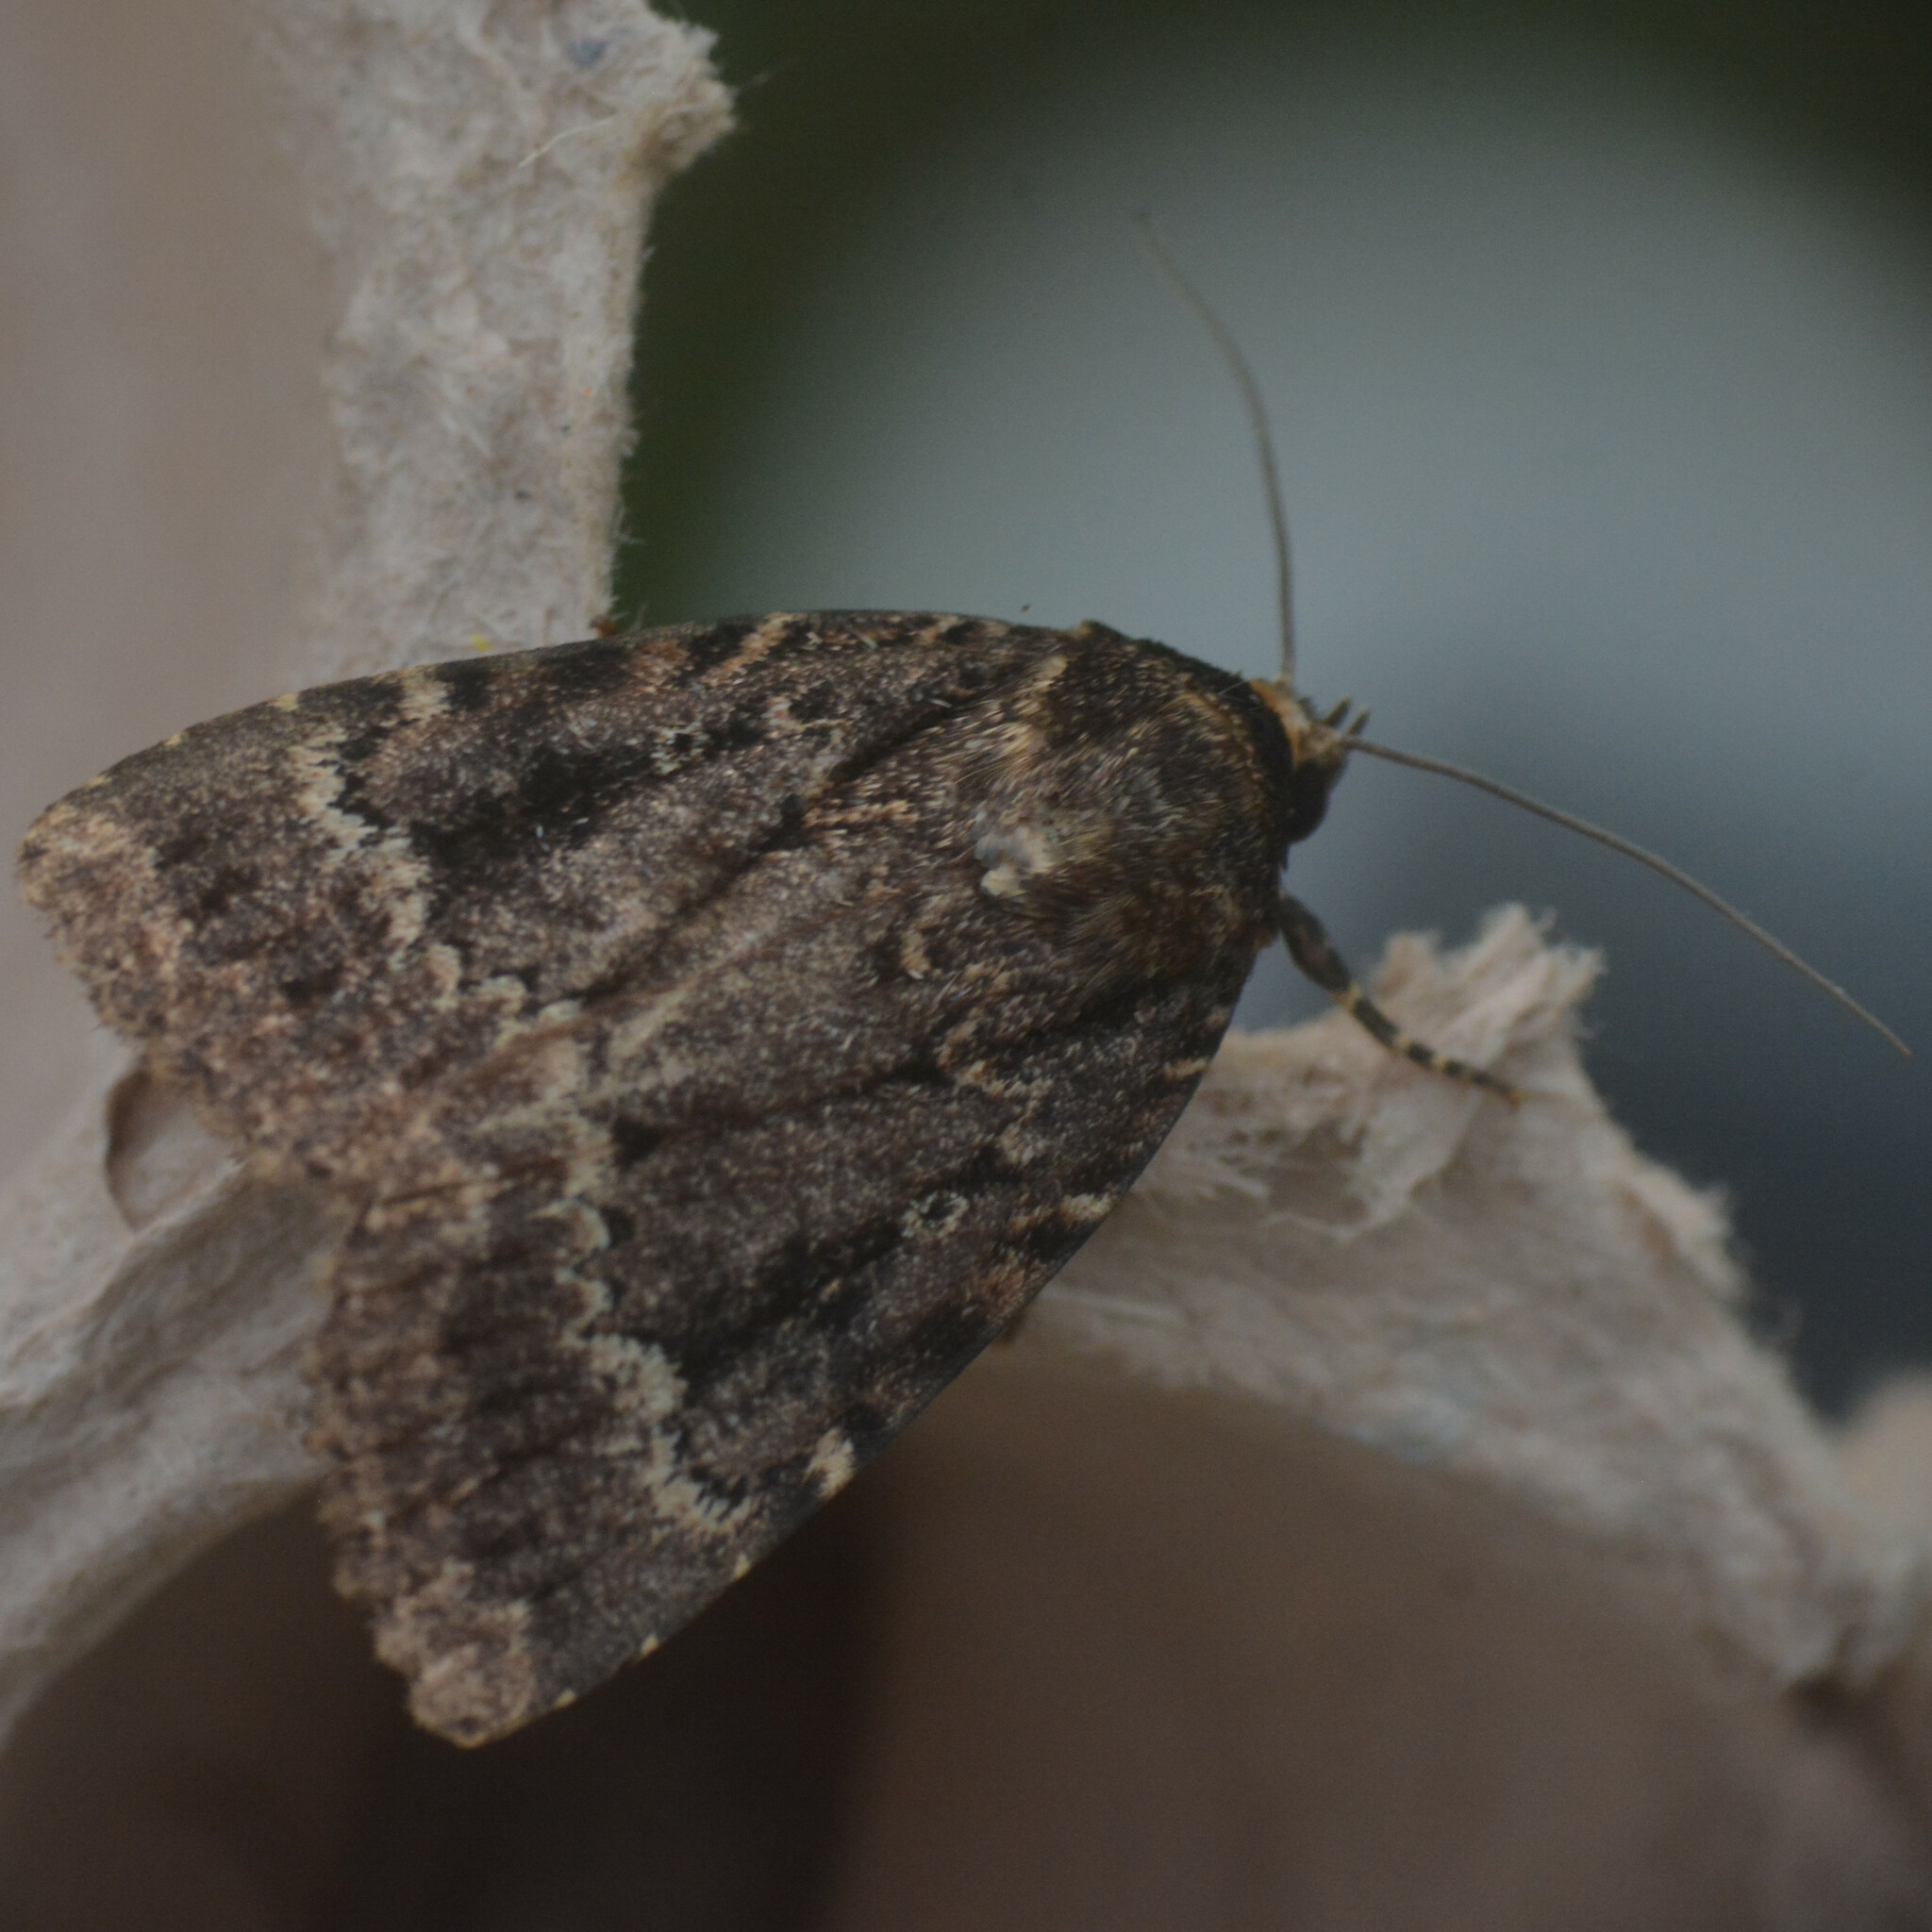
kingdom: Animalia
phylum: Arthropoda
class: Insecta
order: Lepidoptera
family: Noctuidae
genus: Amphipyra
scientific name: Amphipyra
